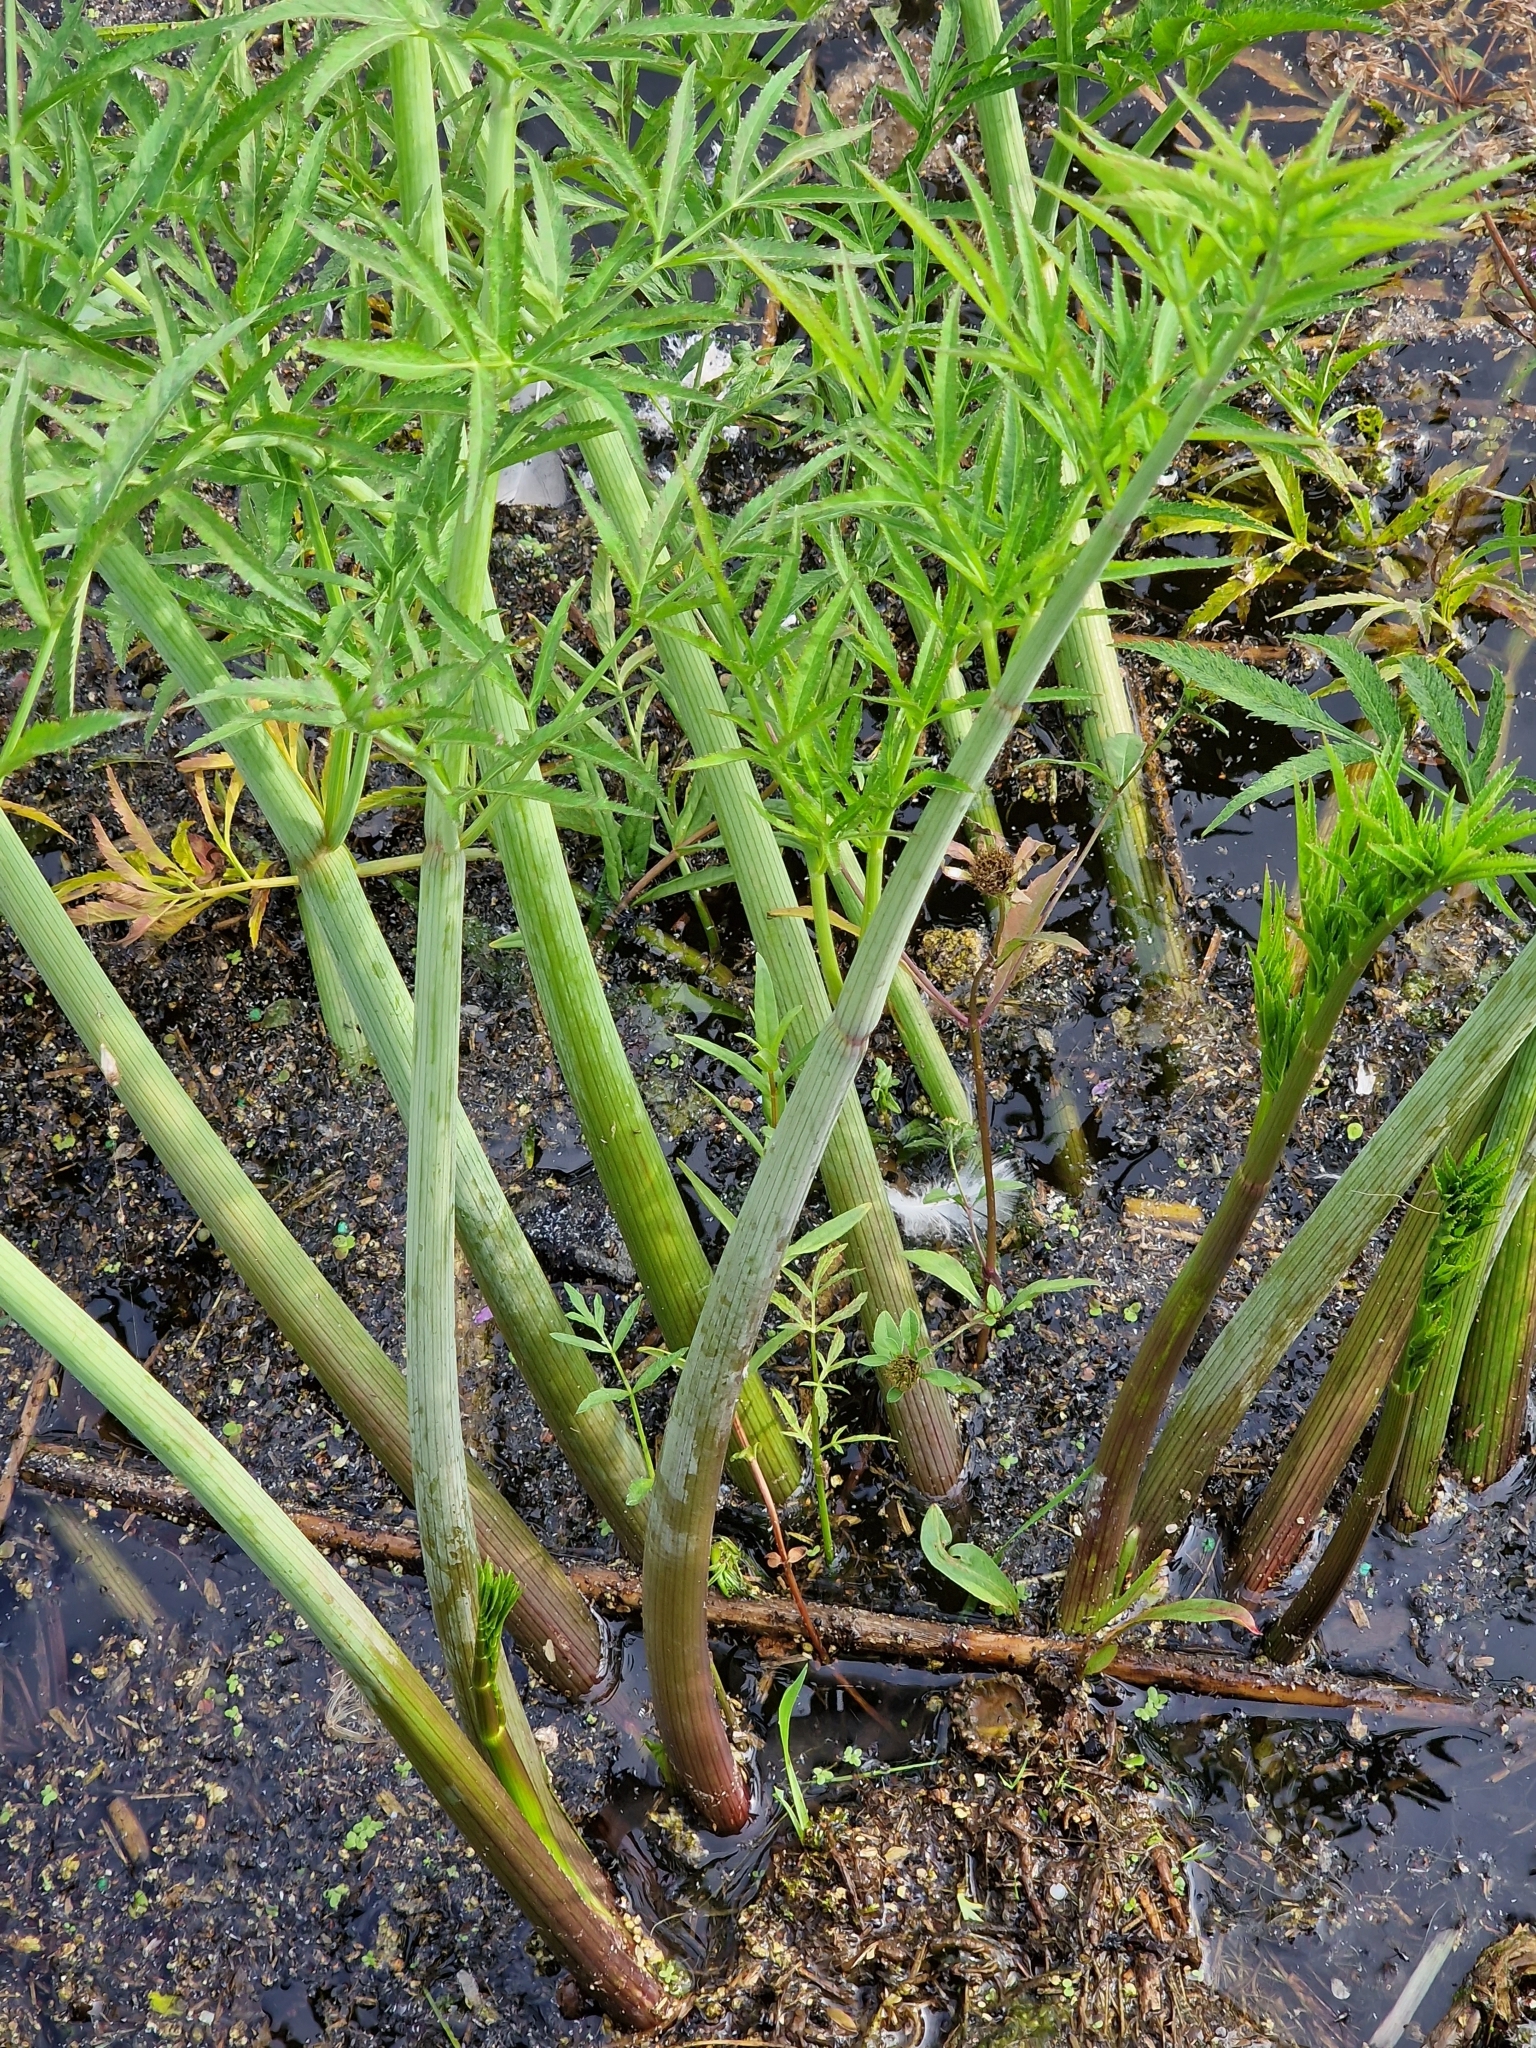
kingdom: Plantae
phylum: Tracheophyta
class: Magnoliopsida
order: Apiales
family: Apiaceae
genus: Cicuta
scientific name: Cicuta virosa
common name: Cowbane
